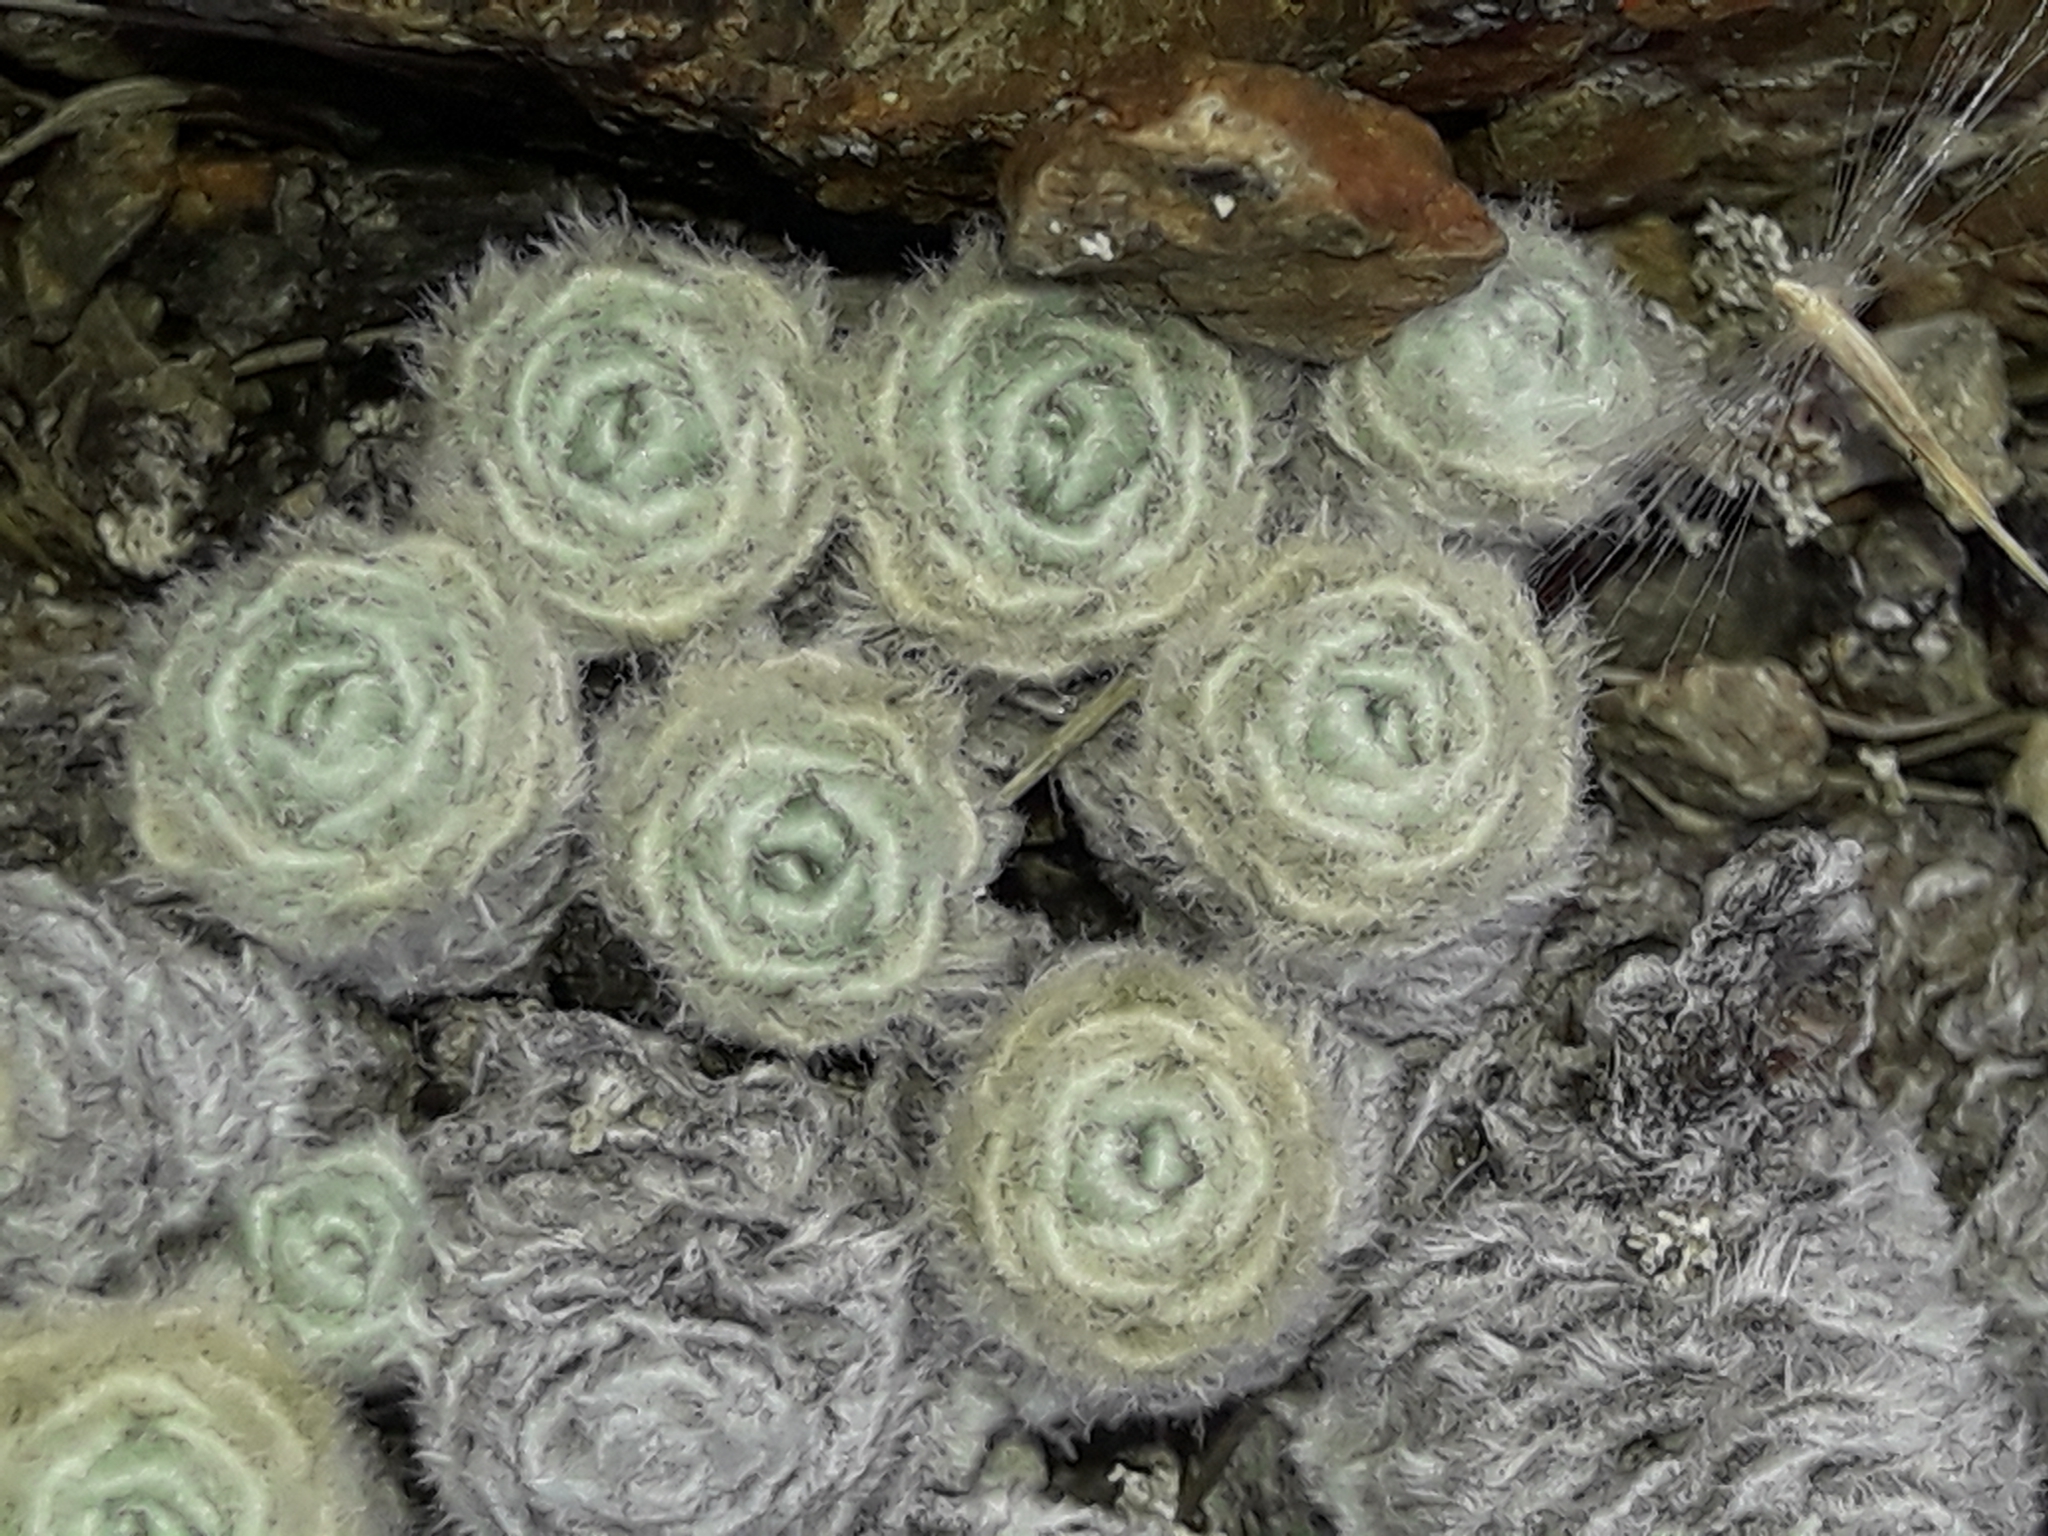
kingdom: Plantae
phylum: Tracheophyta
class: Magnoliopsida
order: Asterales
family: Asteraceae
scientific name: Asteraceae
